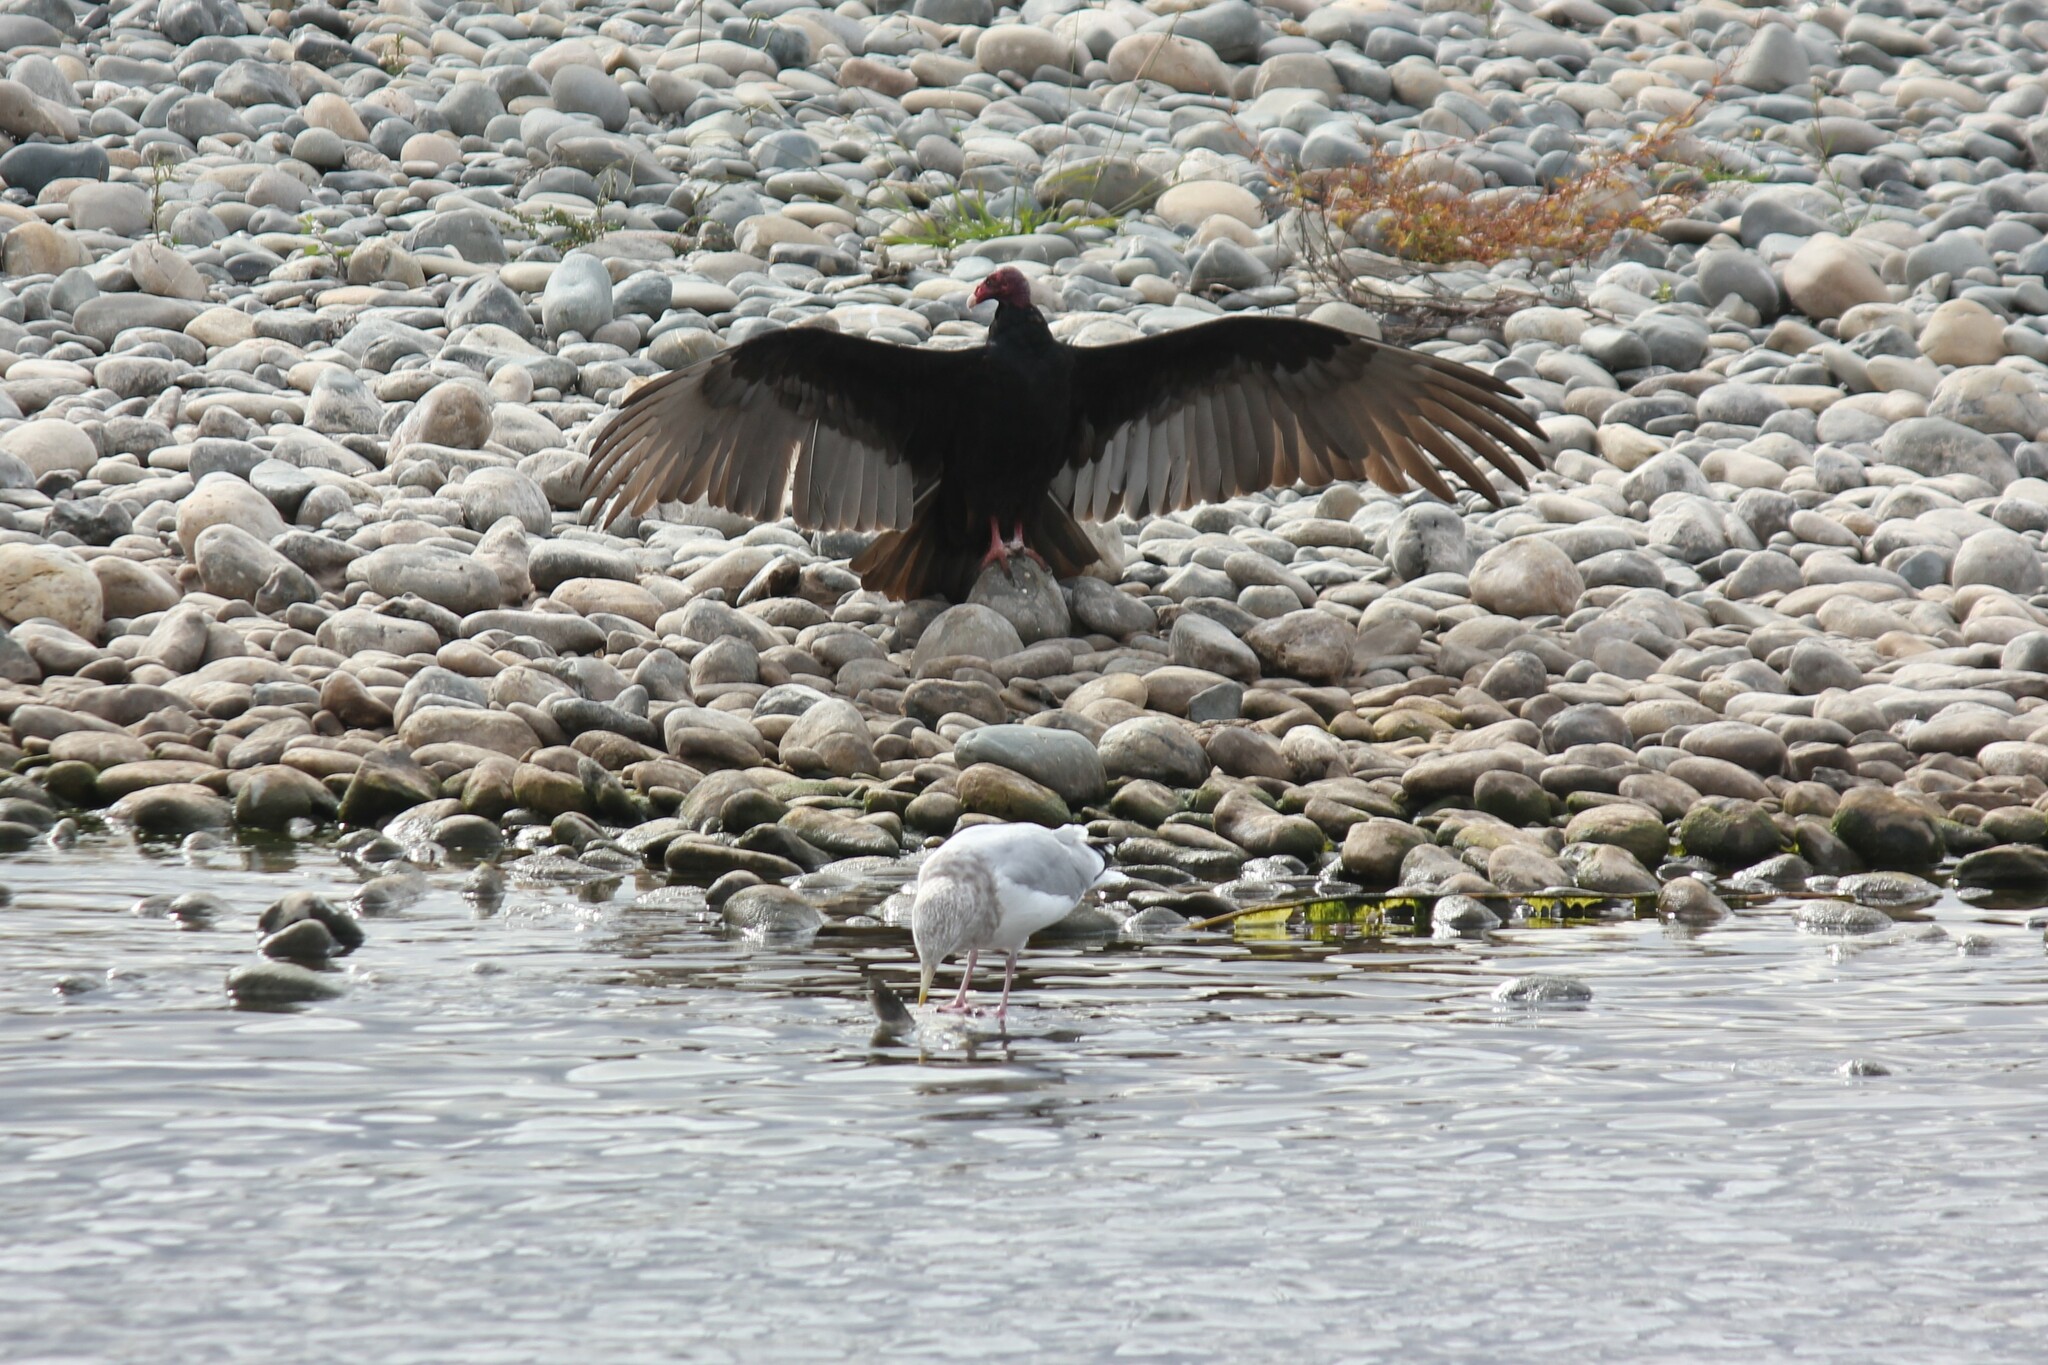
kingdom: Animalia
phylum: Chordata
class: Aves
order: Accipitriformes
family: Cathartidae
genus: Cathartes
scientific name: Cathartes aura
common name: Turkey vulture
